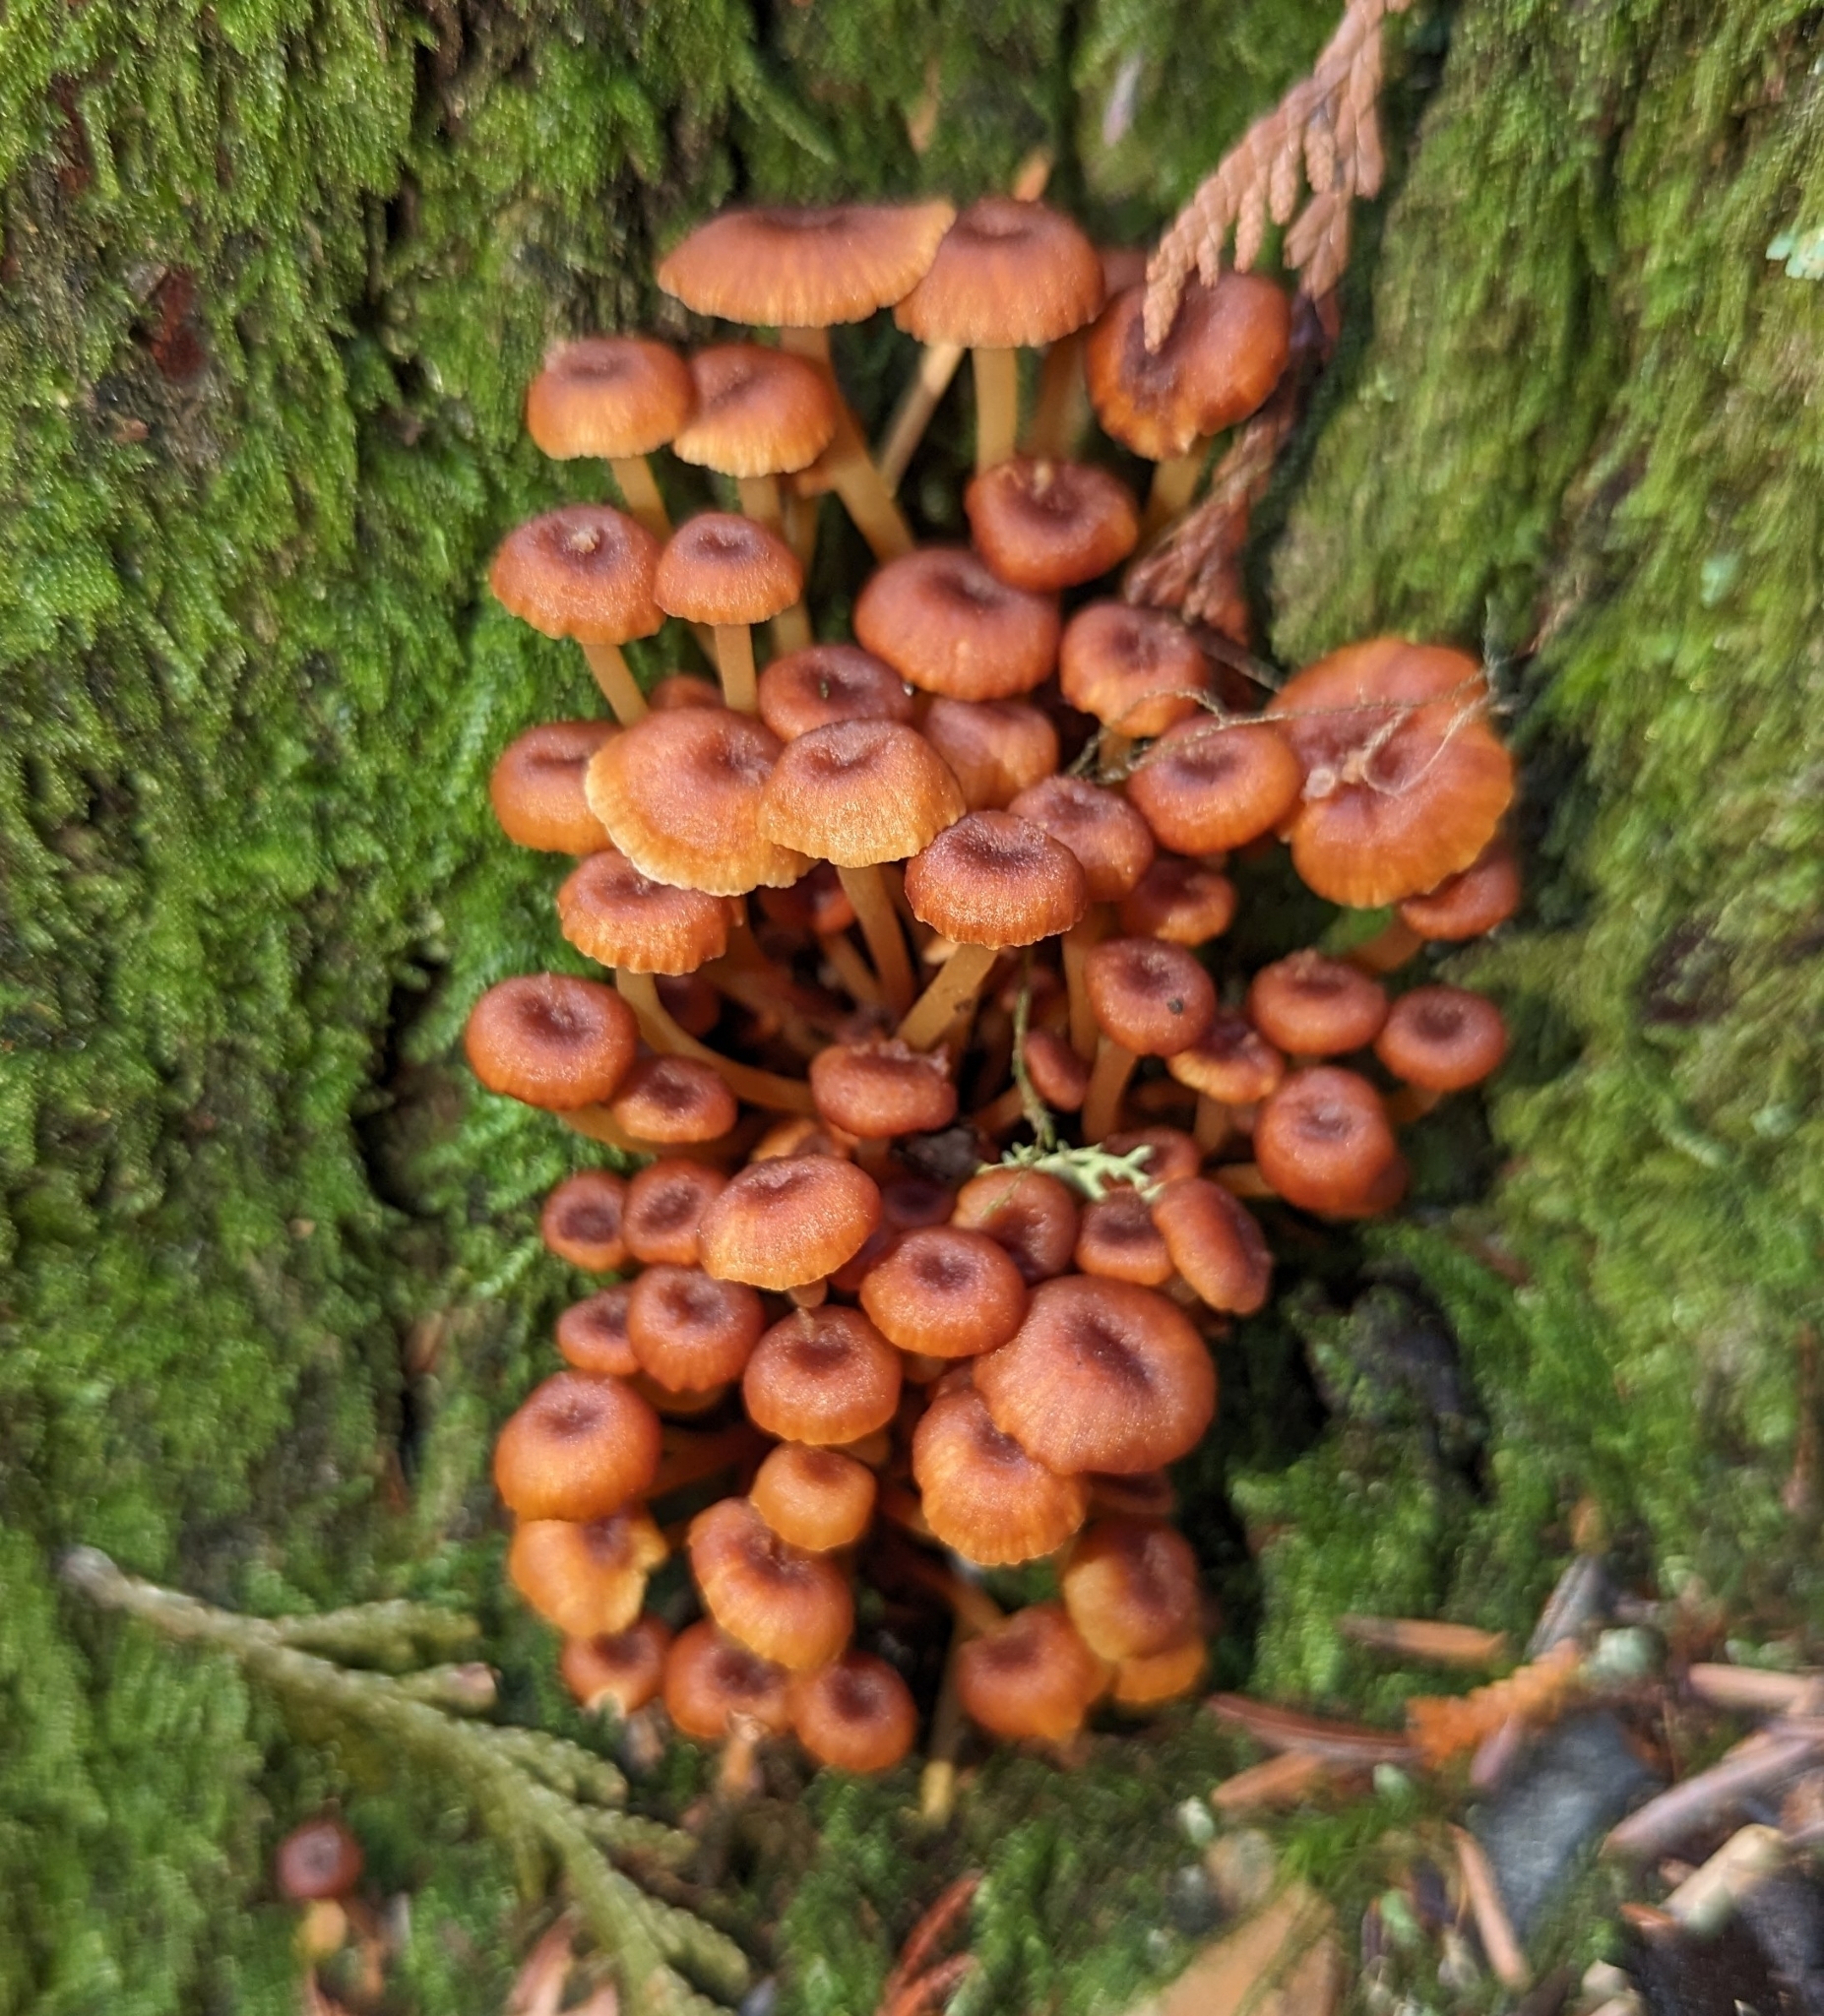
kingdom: Fungi
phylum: Basidiomycota
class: Agaricomycetes
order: Agaricales
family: Mycenaceae
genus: Xeromphalina
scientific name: Xeromphalina campanella
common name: Pinewood gingertail
